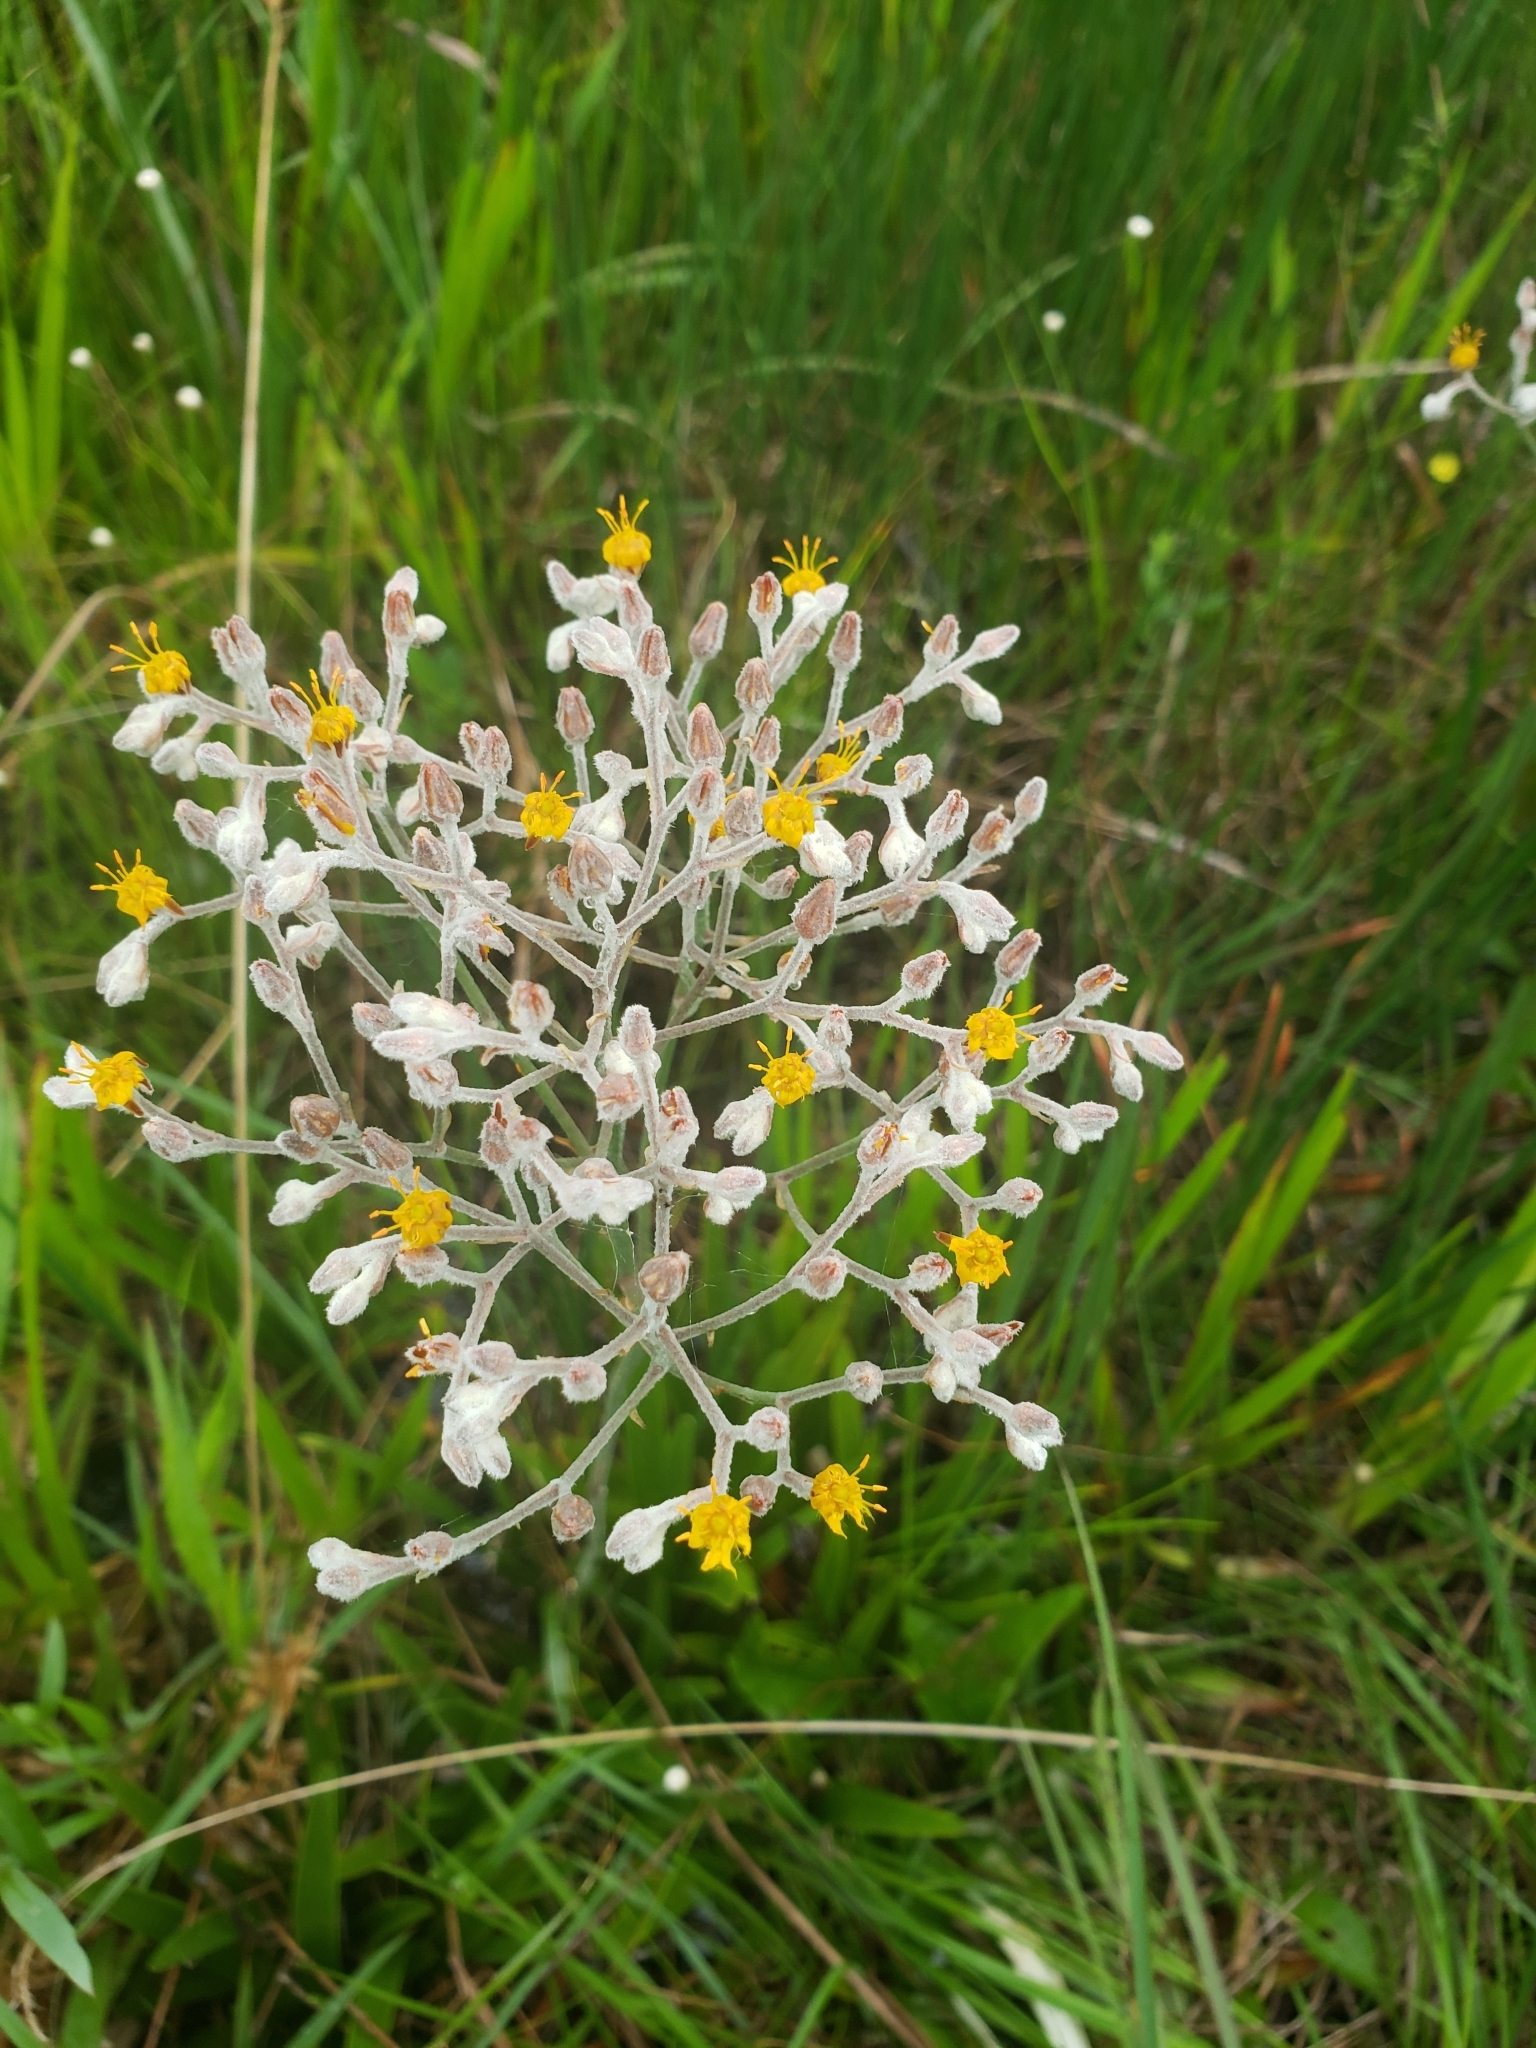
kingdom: Plantae
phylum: Tracheophyta
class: Liliopsida
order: Dioscoreales
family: Nartheciaceae
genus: Lophiola
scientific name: Lophiola aurea
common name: Golden-crest
